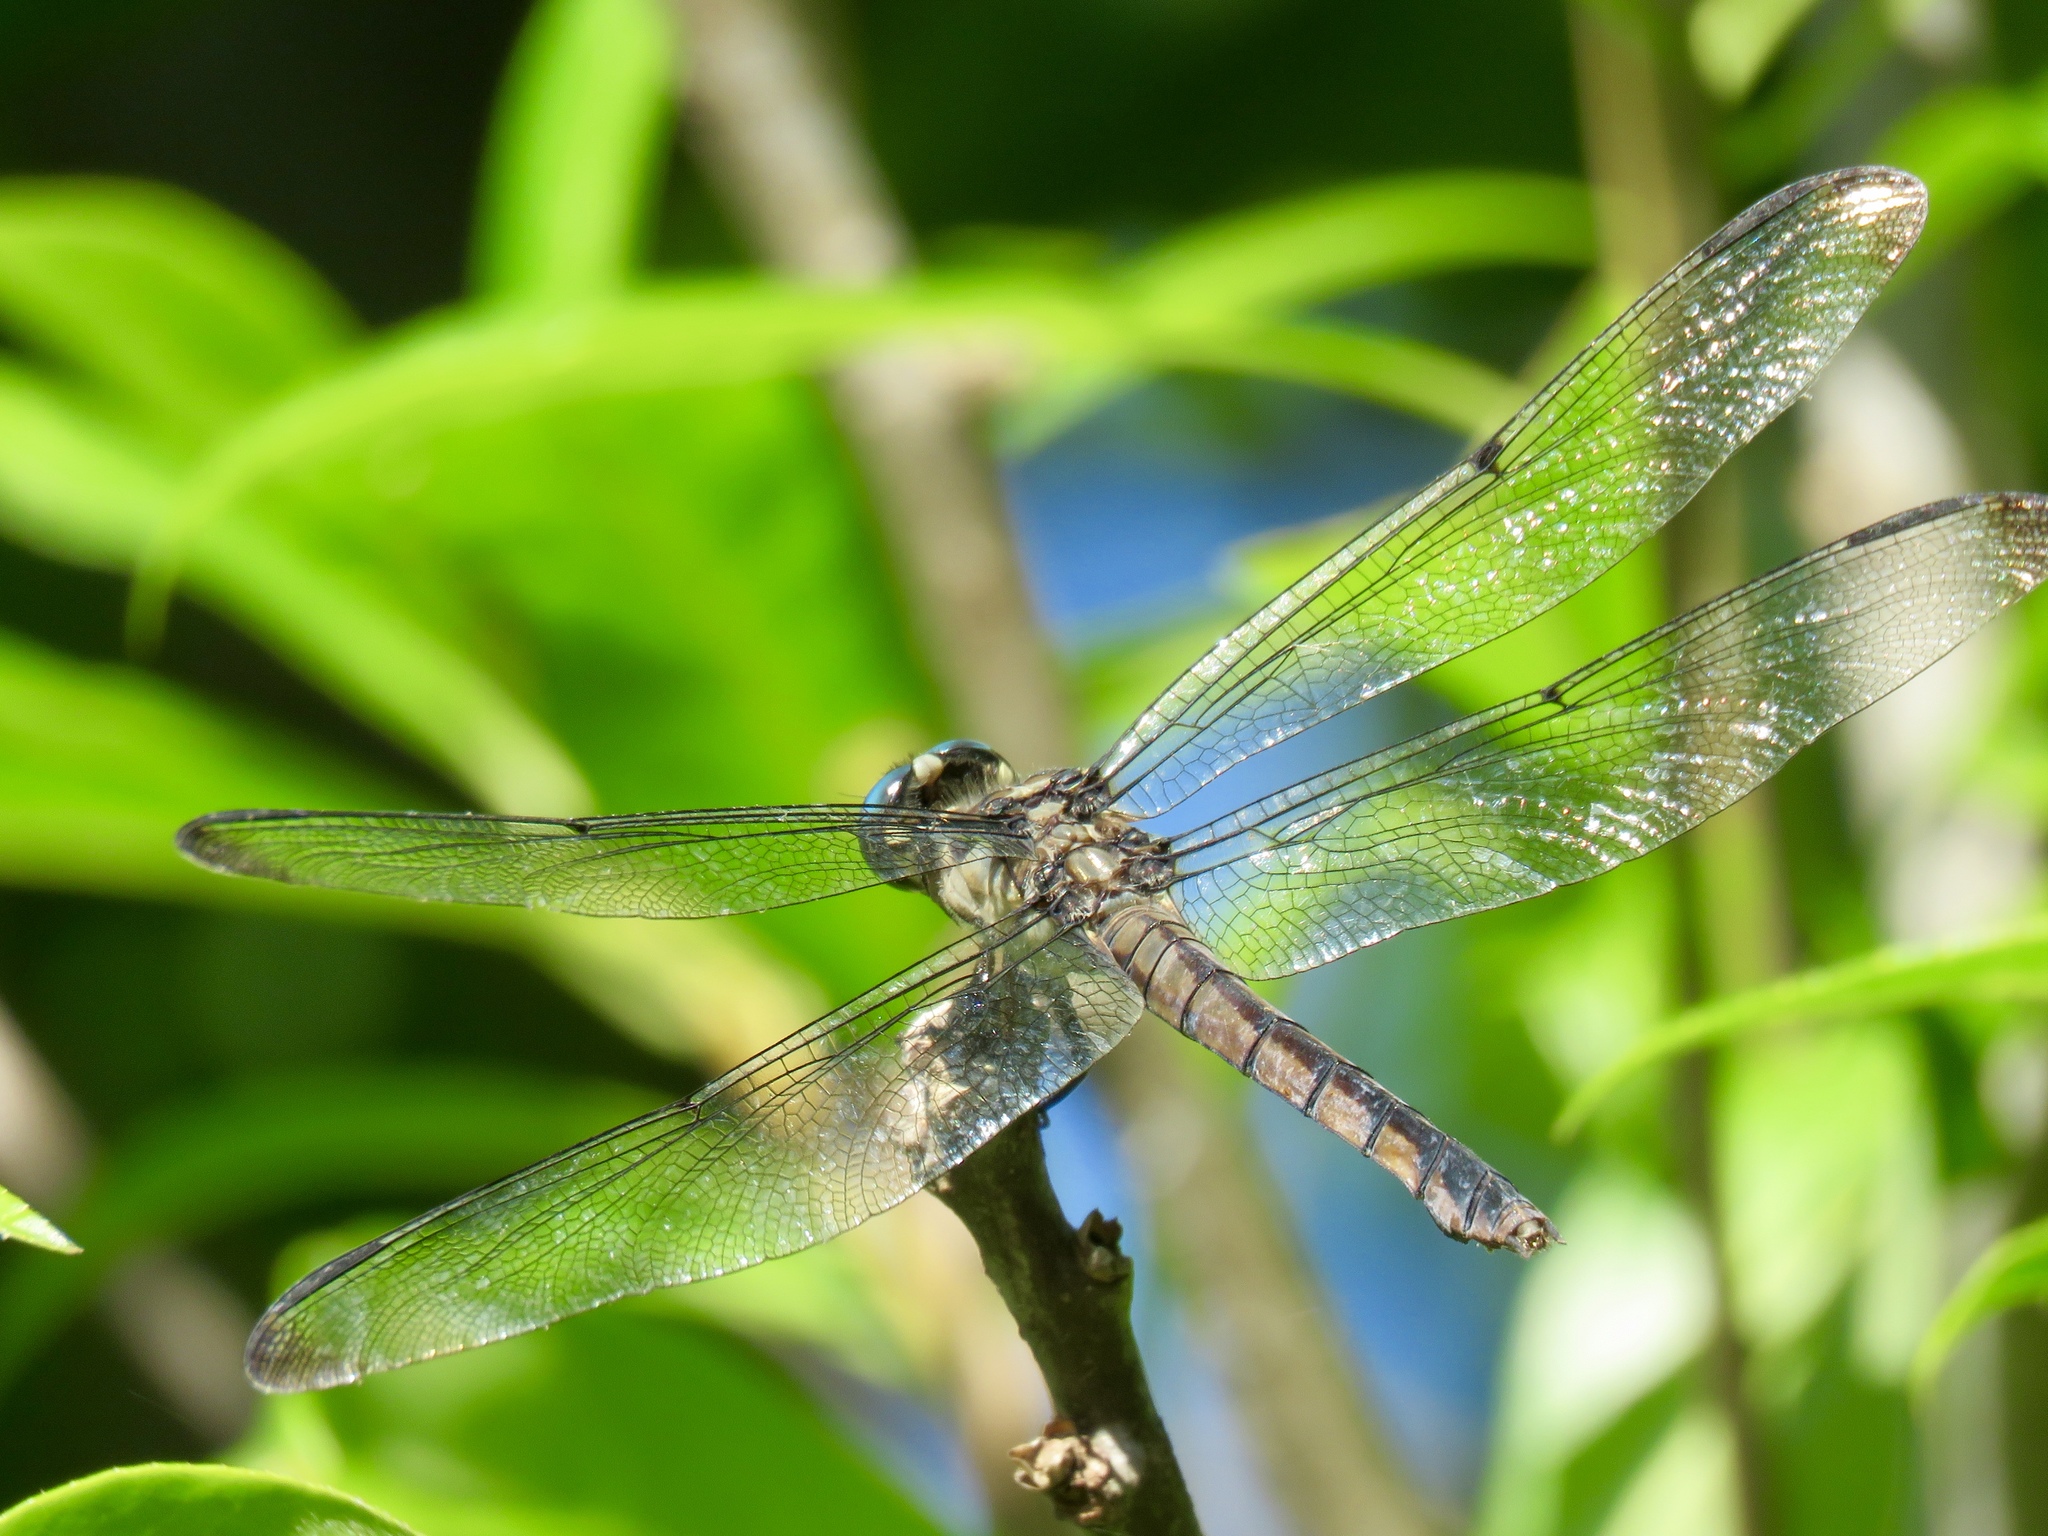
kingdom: Animalia
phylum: Arthropoda
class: Insecta
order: Odonata
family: Libellulidae
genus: Libellula
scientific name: Libellula vibrans
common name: Great blue skimmer
